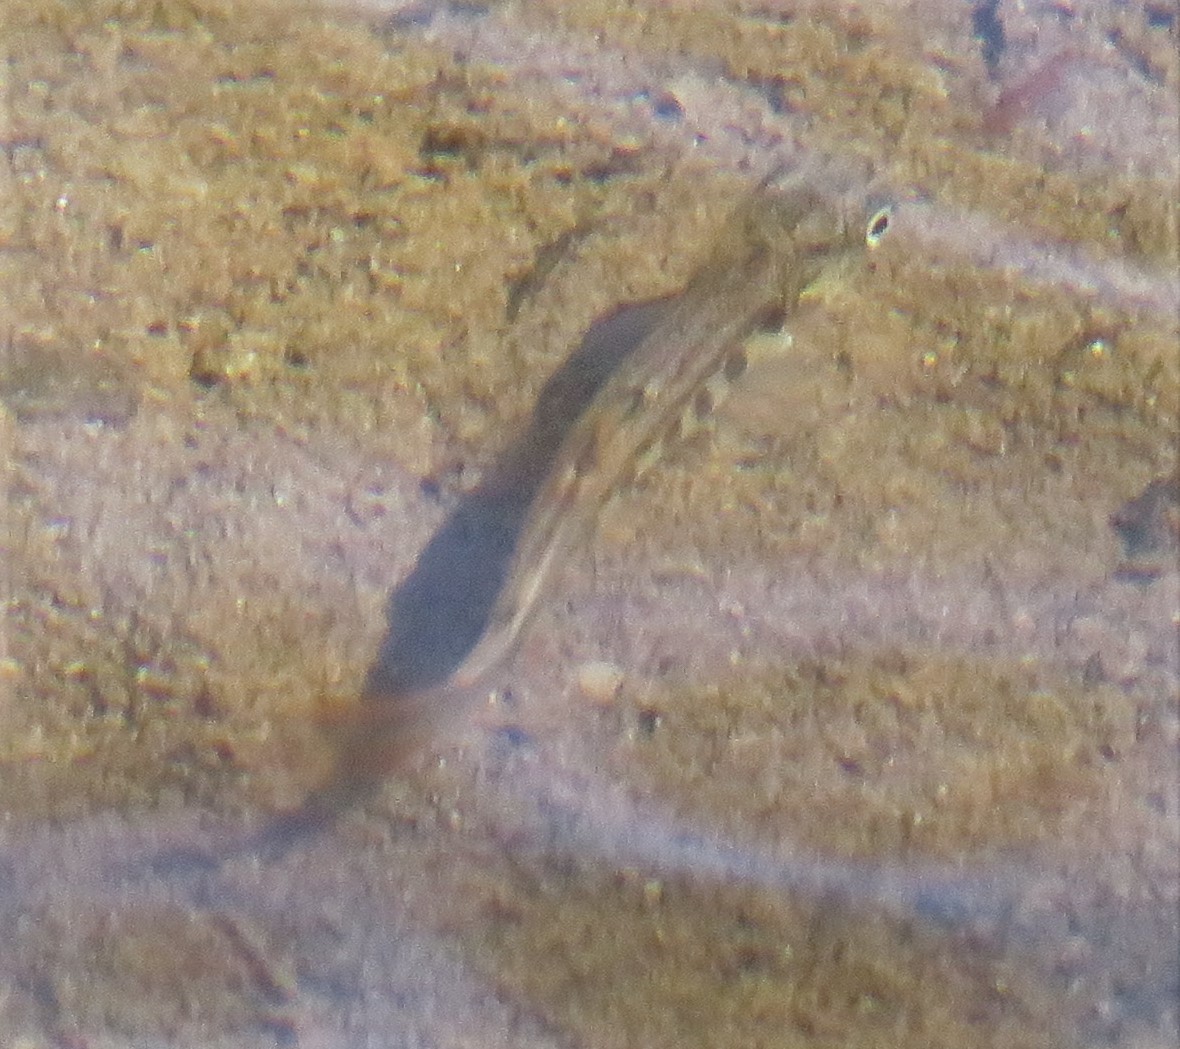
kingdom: Animalia
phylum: Chordata
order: Salmoniformes
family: Salmonidae
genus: Salvelinus
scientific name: Salvelinus fontinalis
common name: Brook trout
